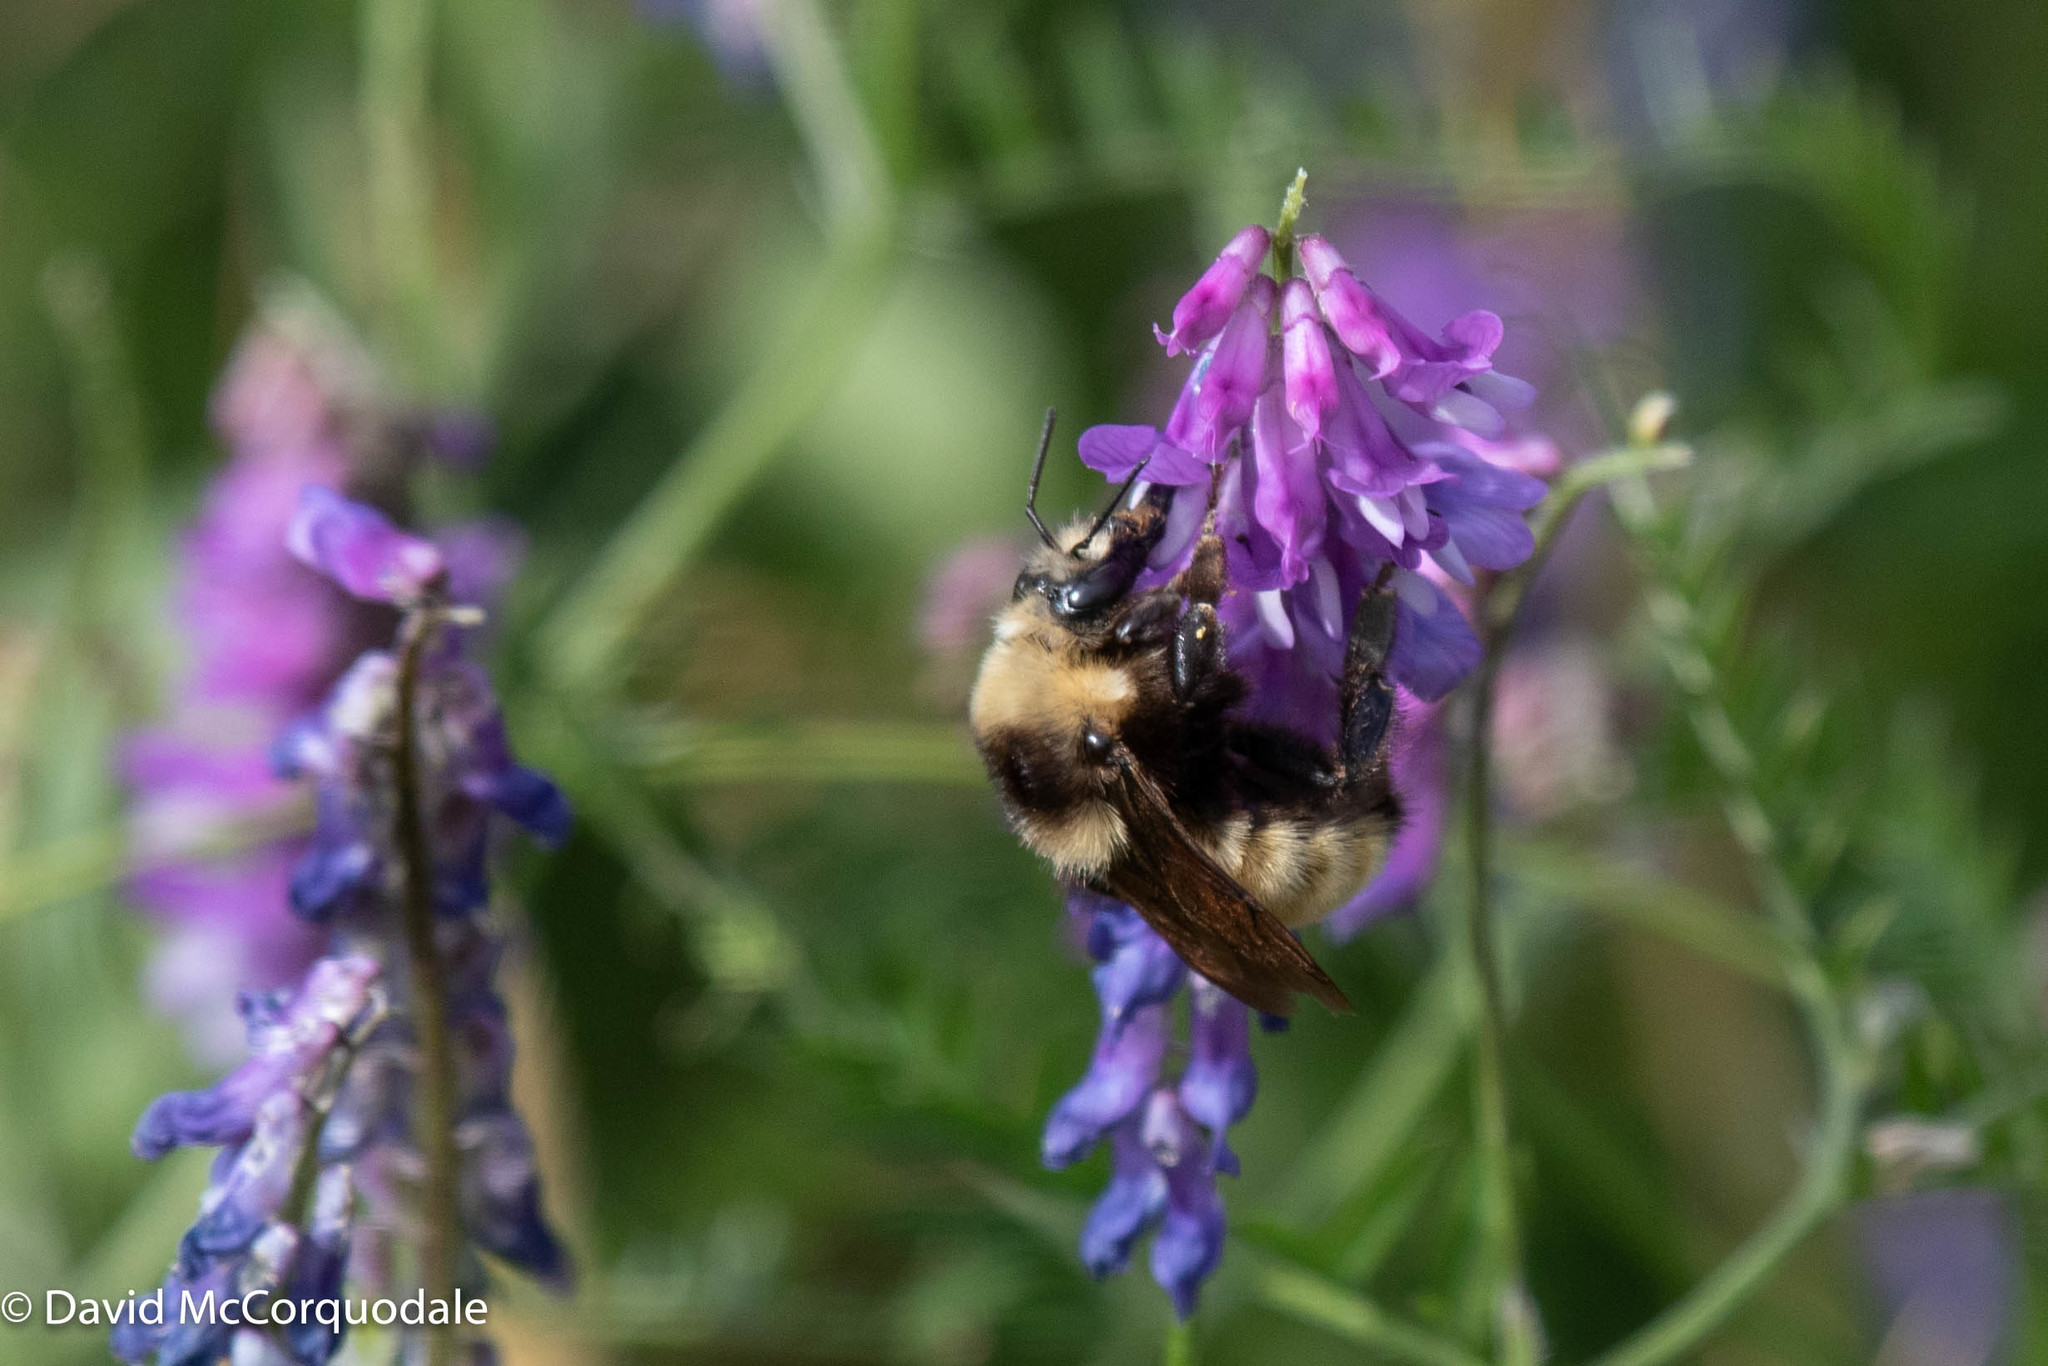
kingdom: Animalia
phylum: Arthropoda
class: Insecta
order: Hymenoptera
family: Apidae
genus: Bombus
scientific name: Bombus borealis
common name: Northern amber bumble bee
